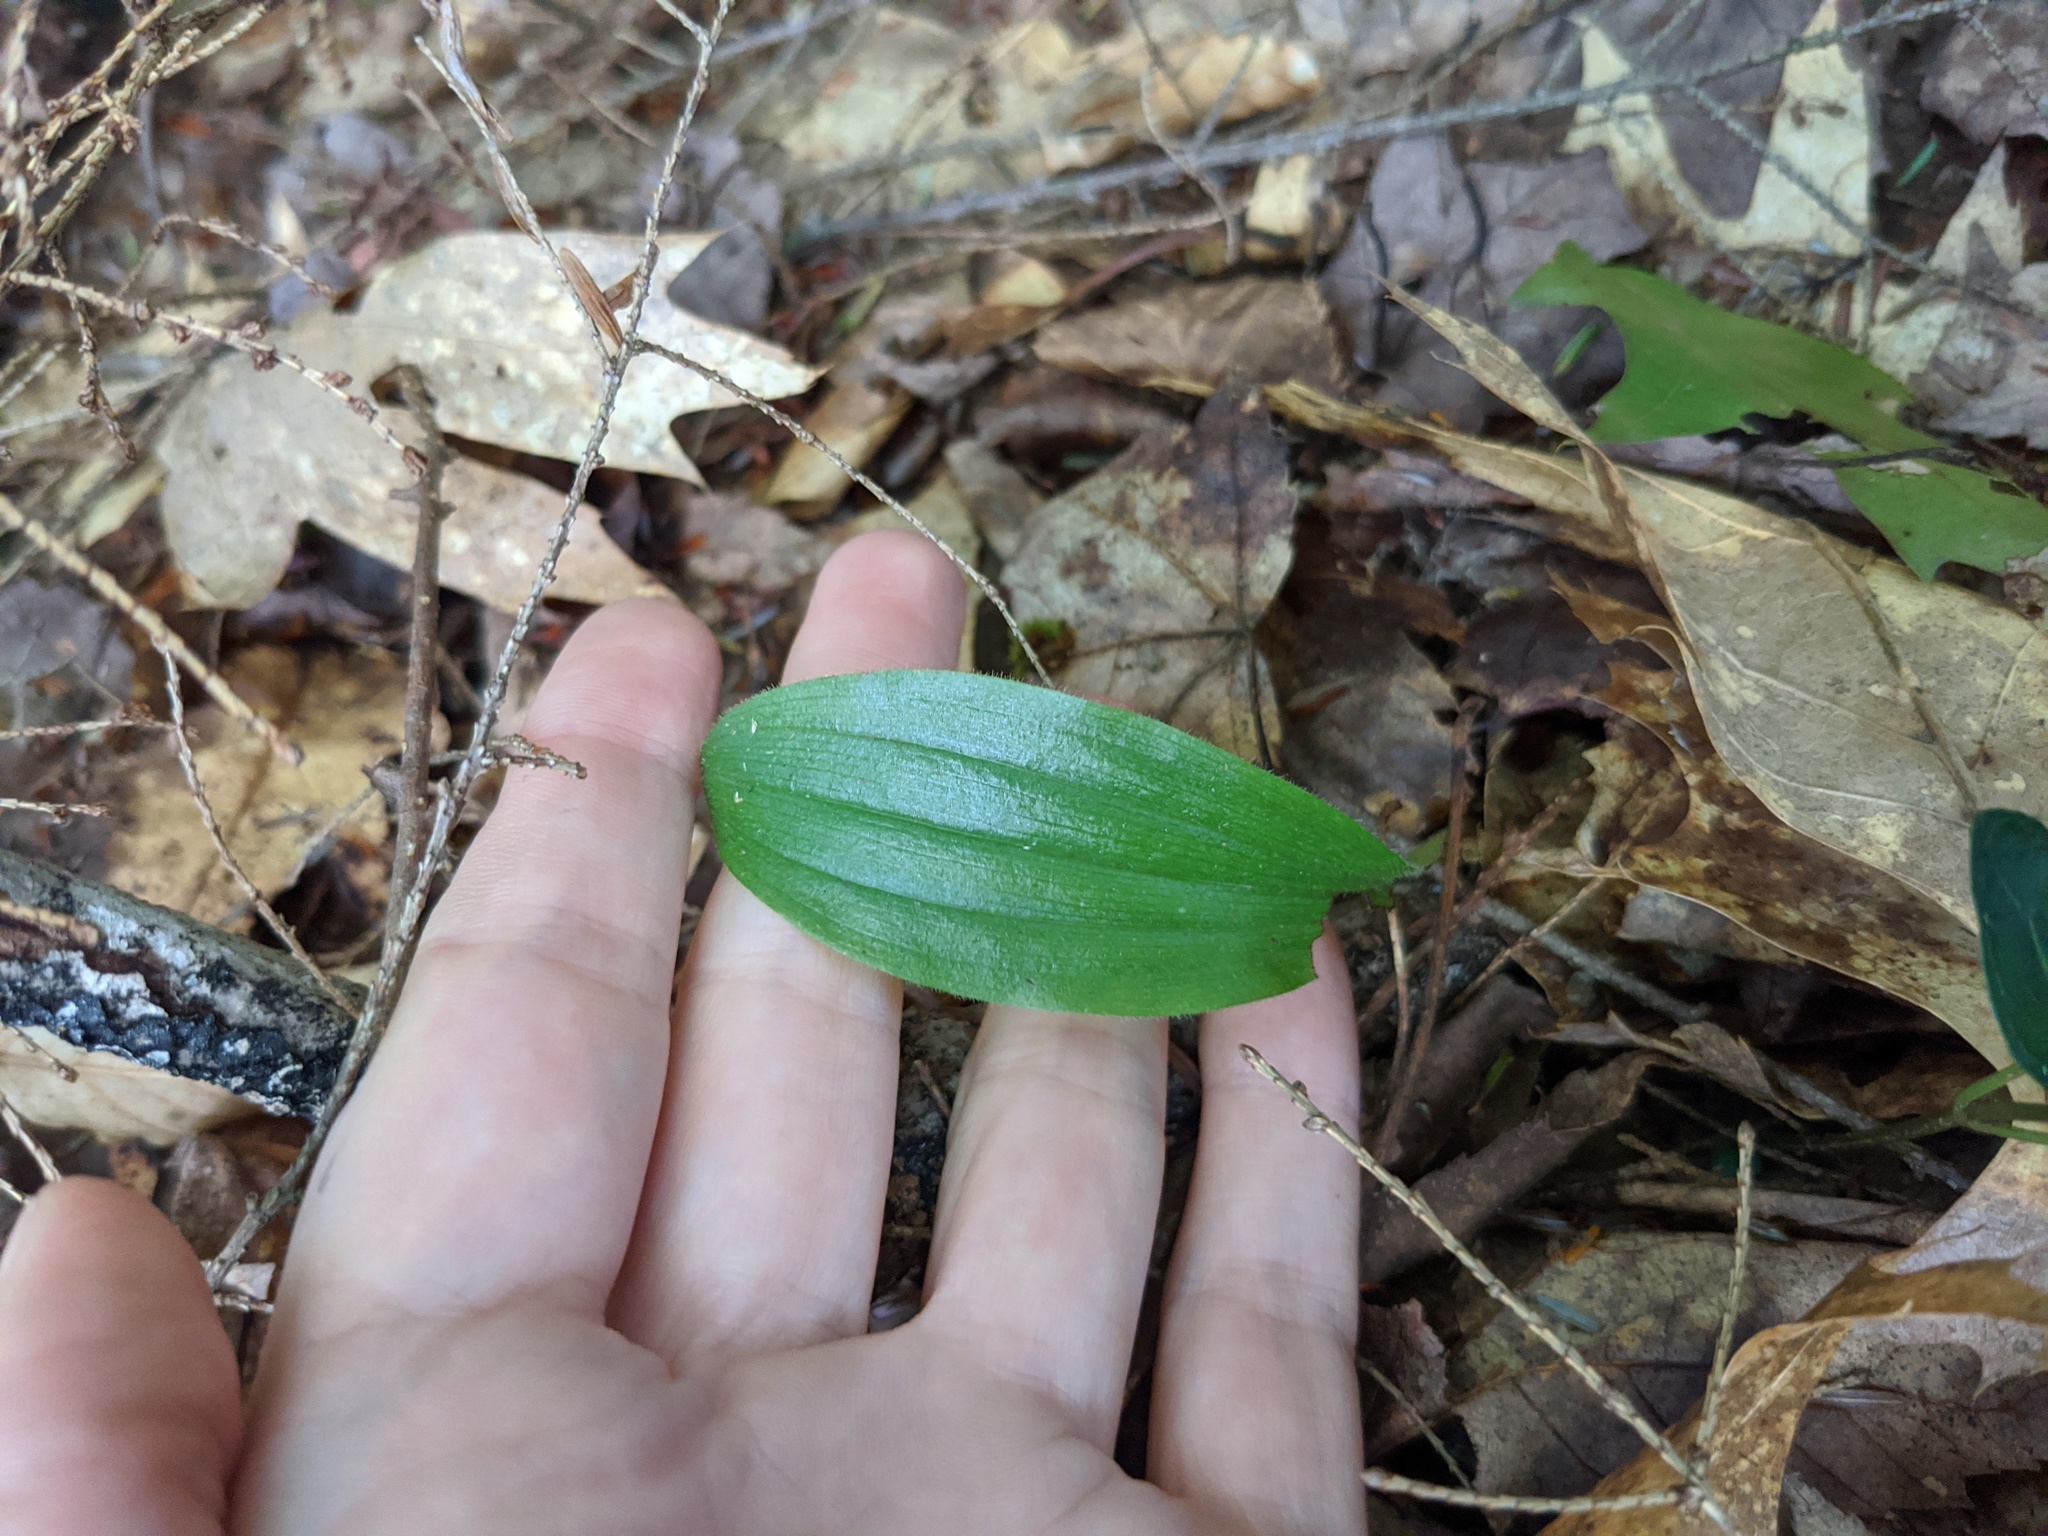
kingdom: Plantae
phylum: Tracheophyta
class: Liliopsida
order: Asparagales
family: Orchidaceae
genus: Cypripedium
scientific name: Cypripedium acaule
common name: Pink lady's-slipper
